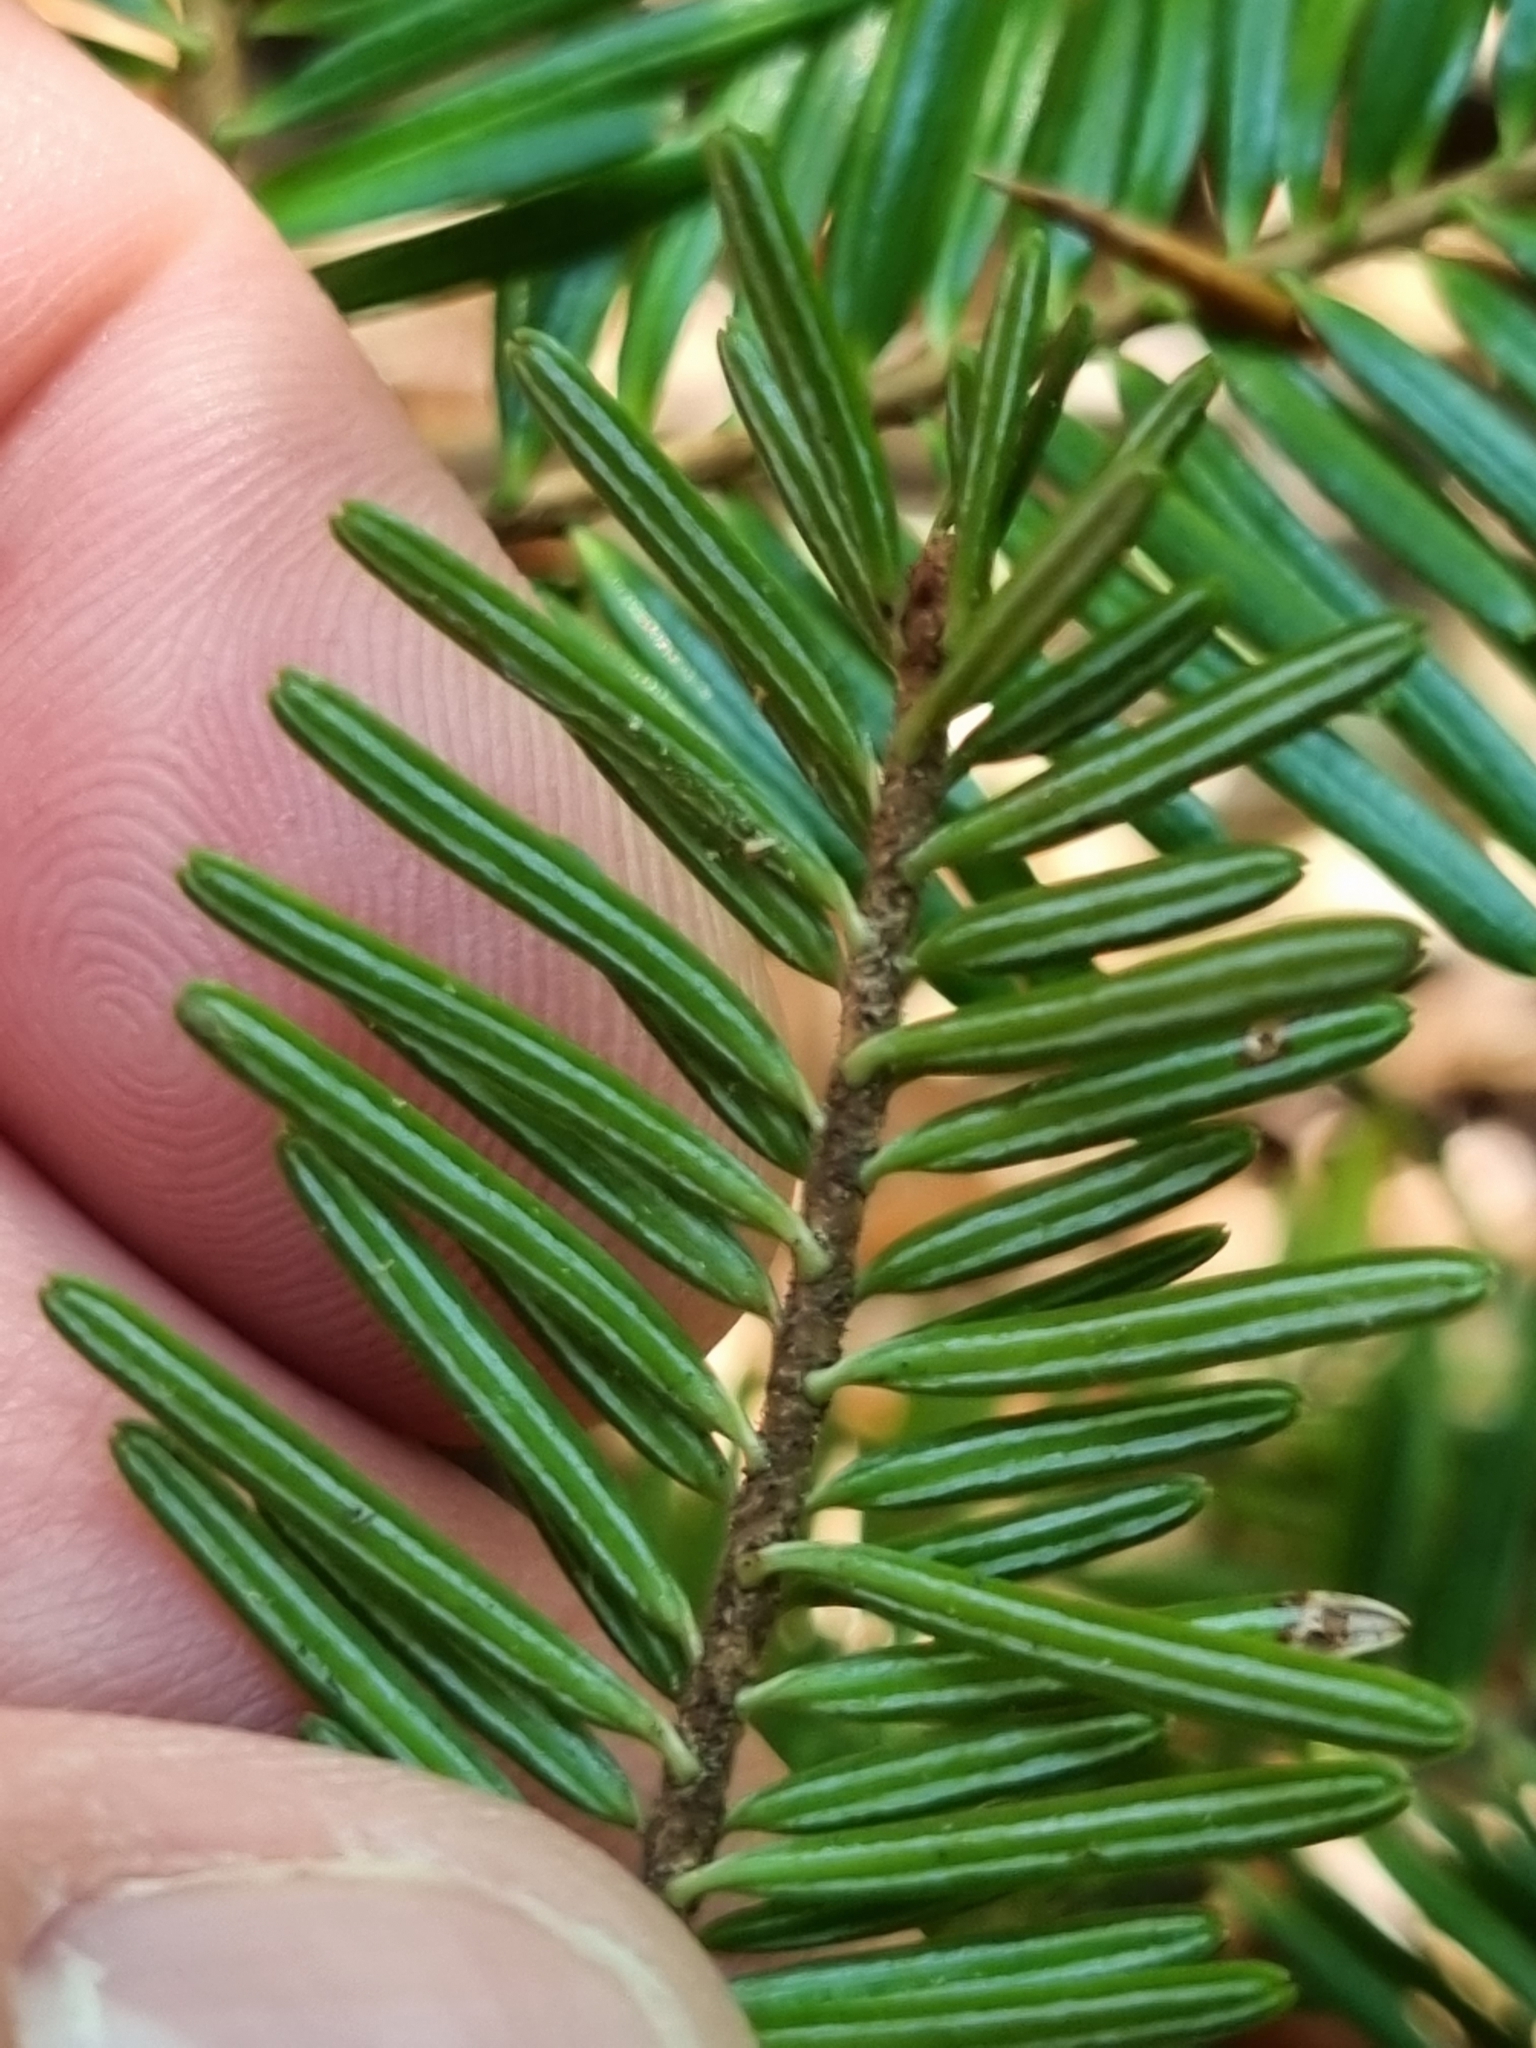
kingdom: Plantae
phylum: Tracheophyta
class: Pinopsida
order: Pinales
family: Pinaceae
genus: Abies
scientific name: Abies alba
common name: Silver fir
